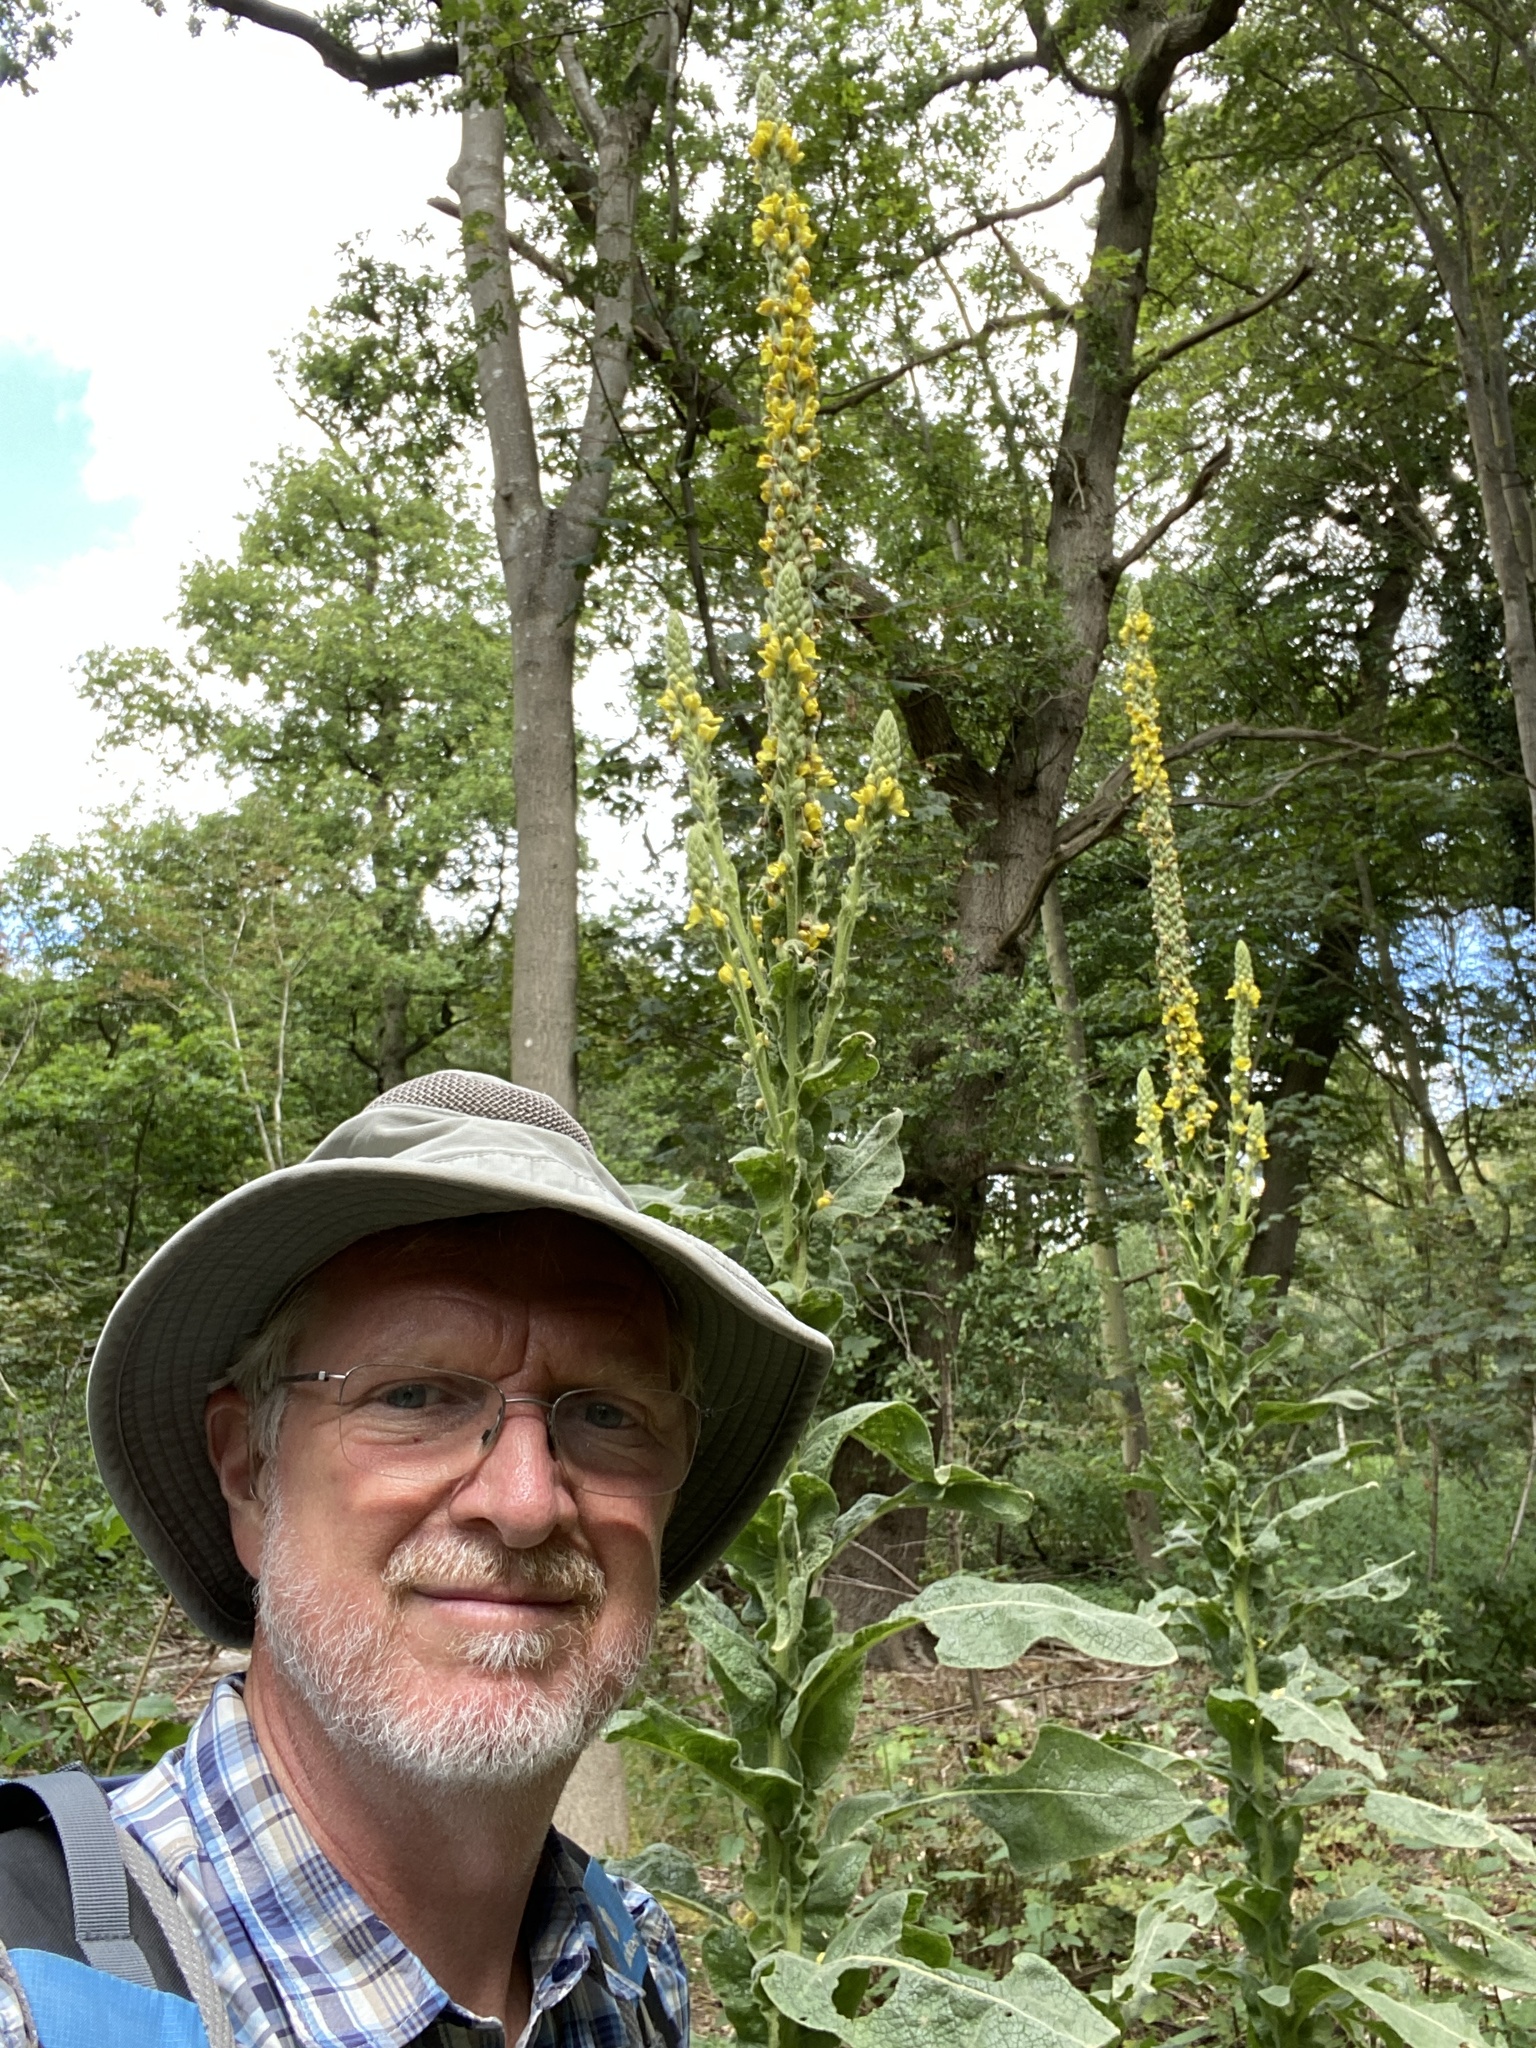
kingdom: Plantae
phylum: Tracheophyta
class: Magnoliopsida
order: Lamiales
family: Scrophulariaceae
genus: Verbascum
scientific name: Verbascum thapsus
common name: Common mullein
